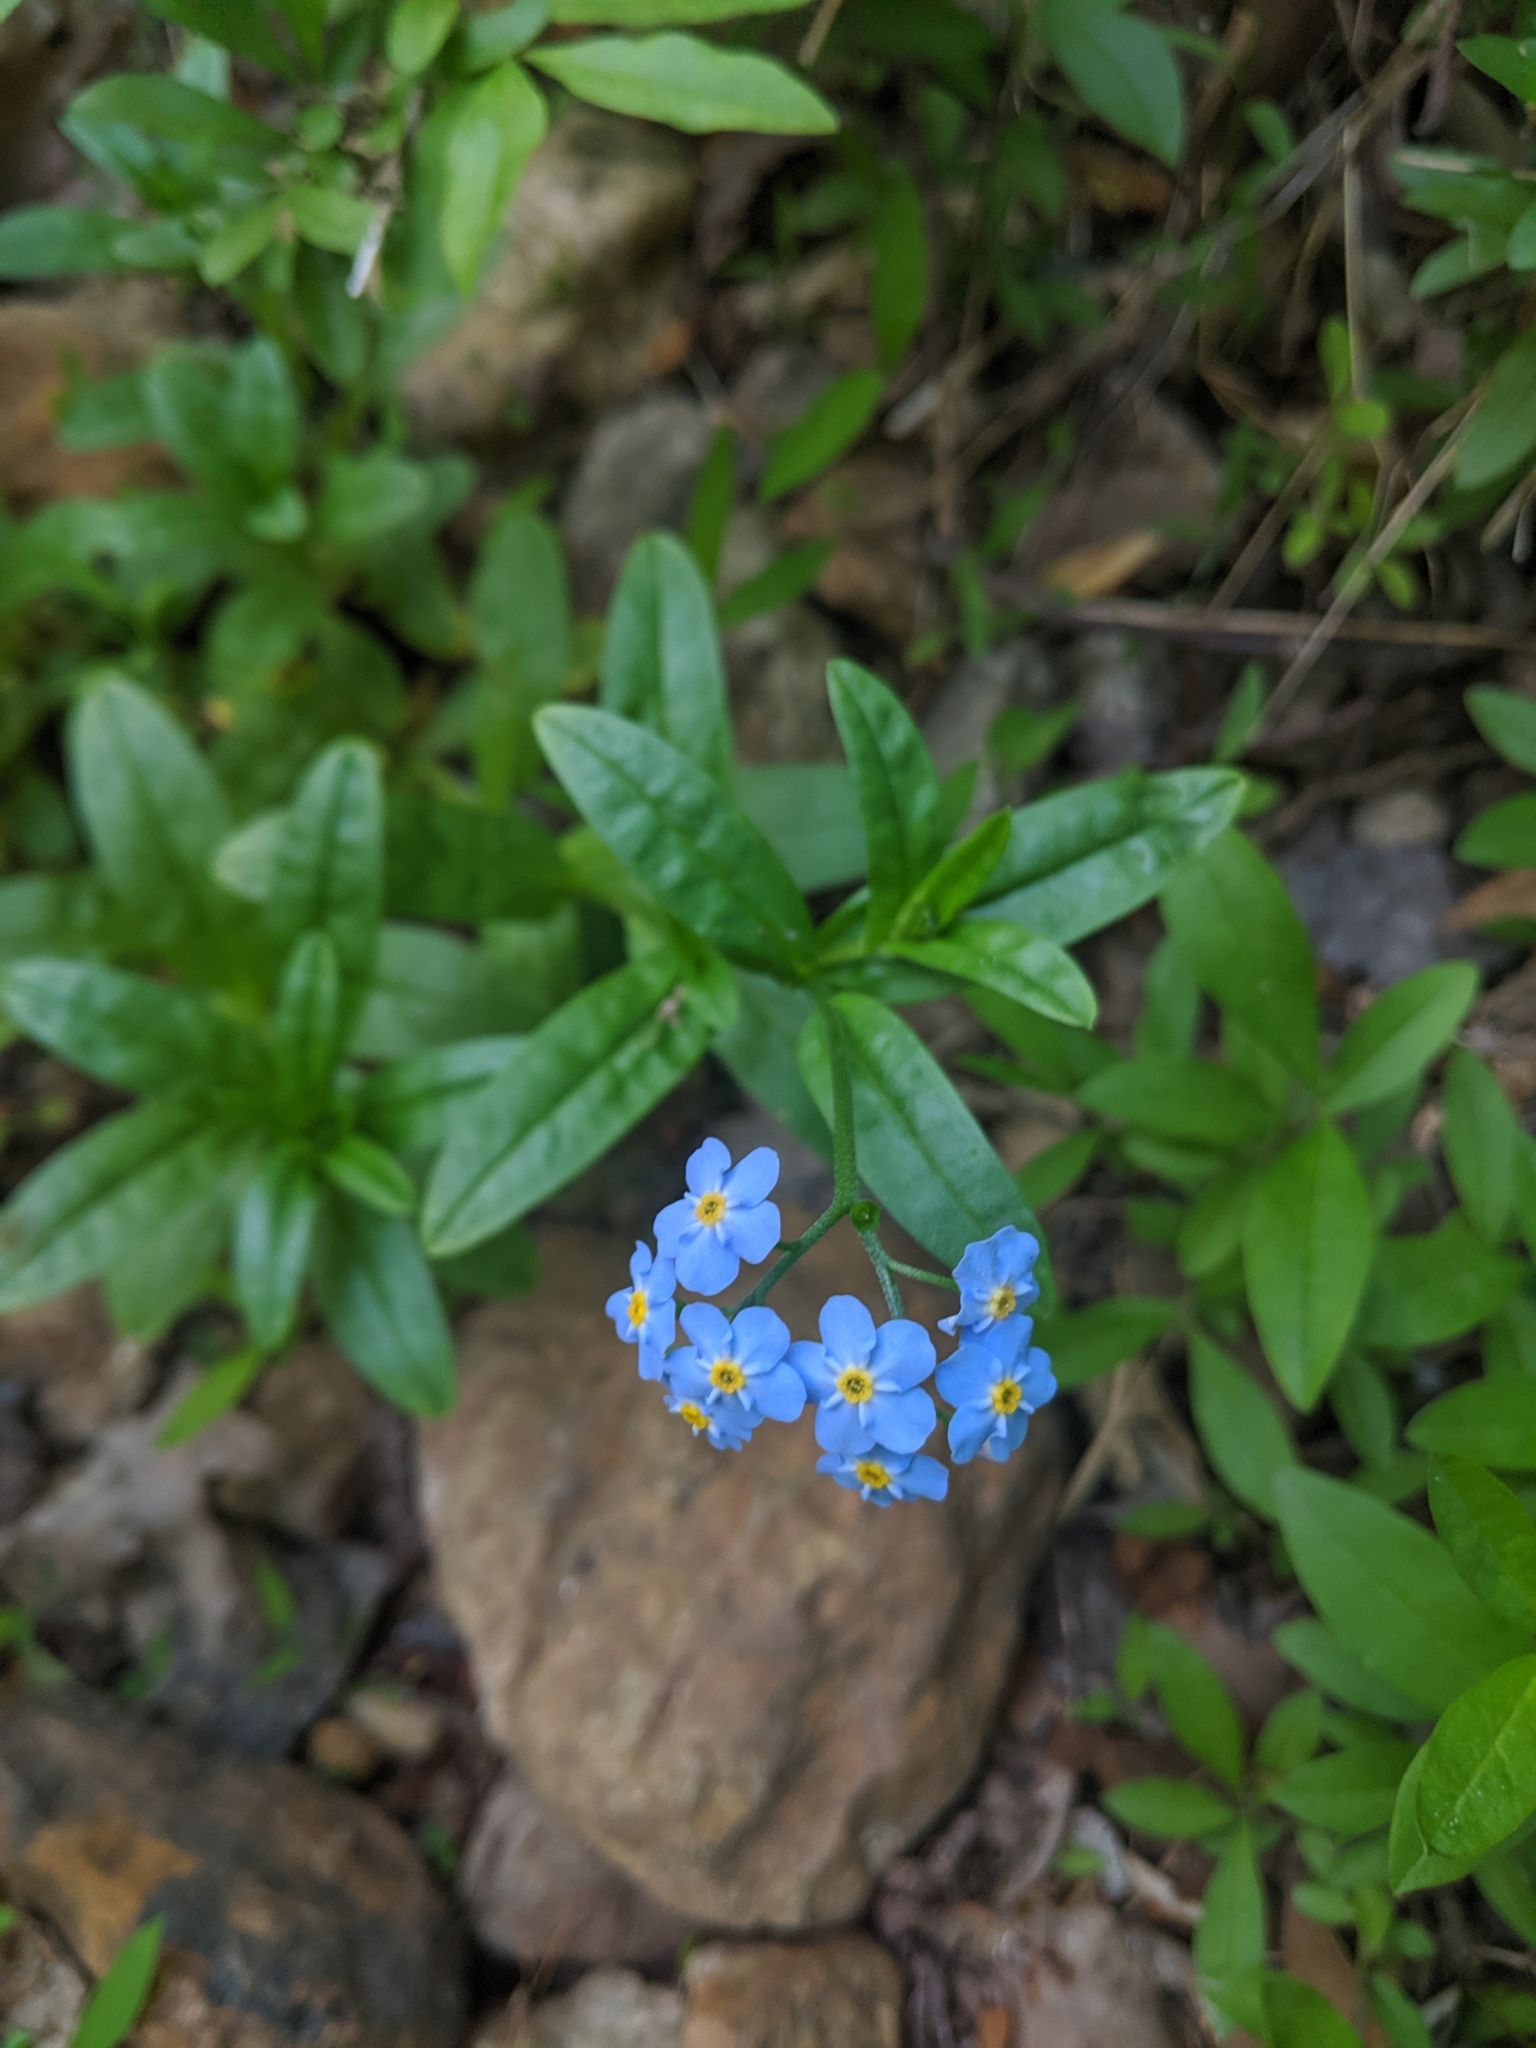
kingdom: Plantae
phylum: Tracheophyta
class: Magnoliopsida
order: Boraginales
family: Boraginaceae
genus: Myosotis
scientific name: Myosotis scorpioides
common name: Water forget-me-not
